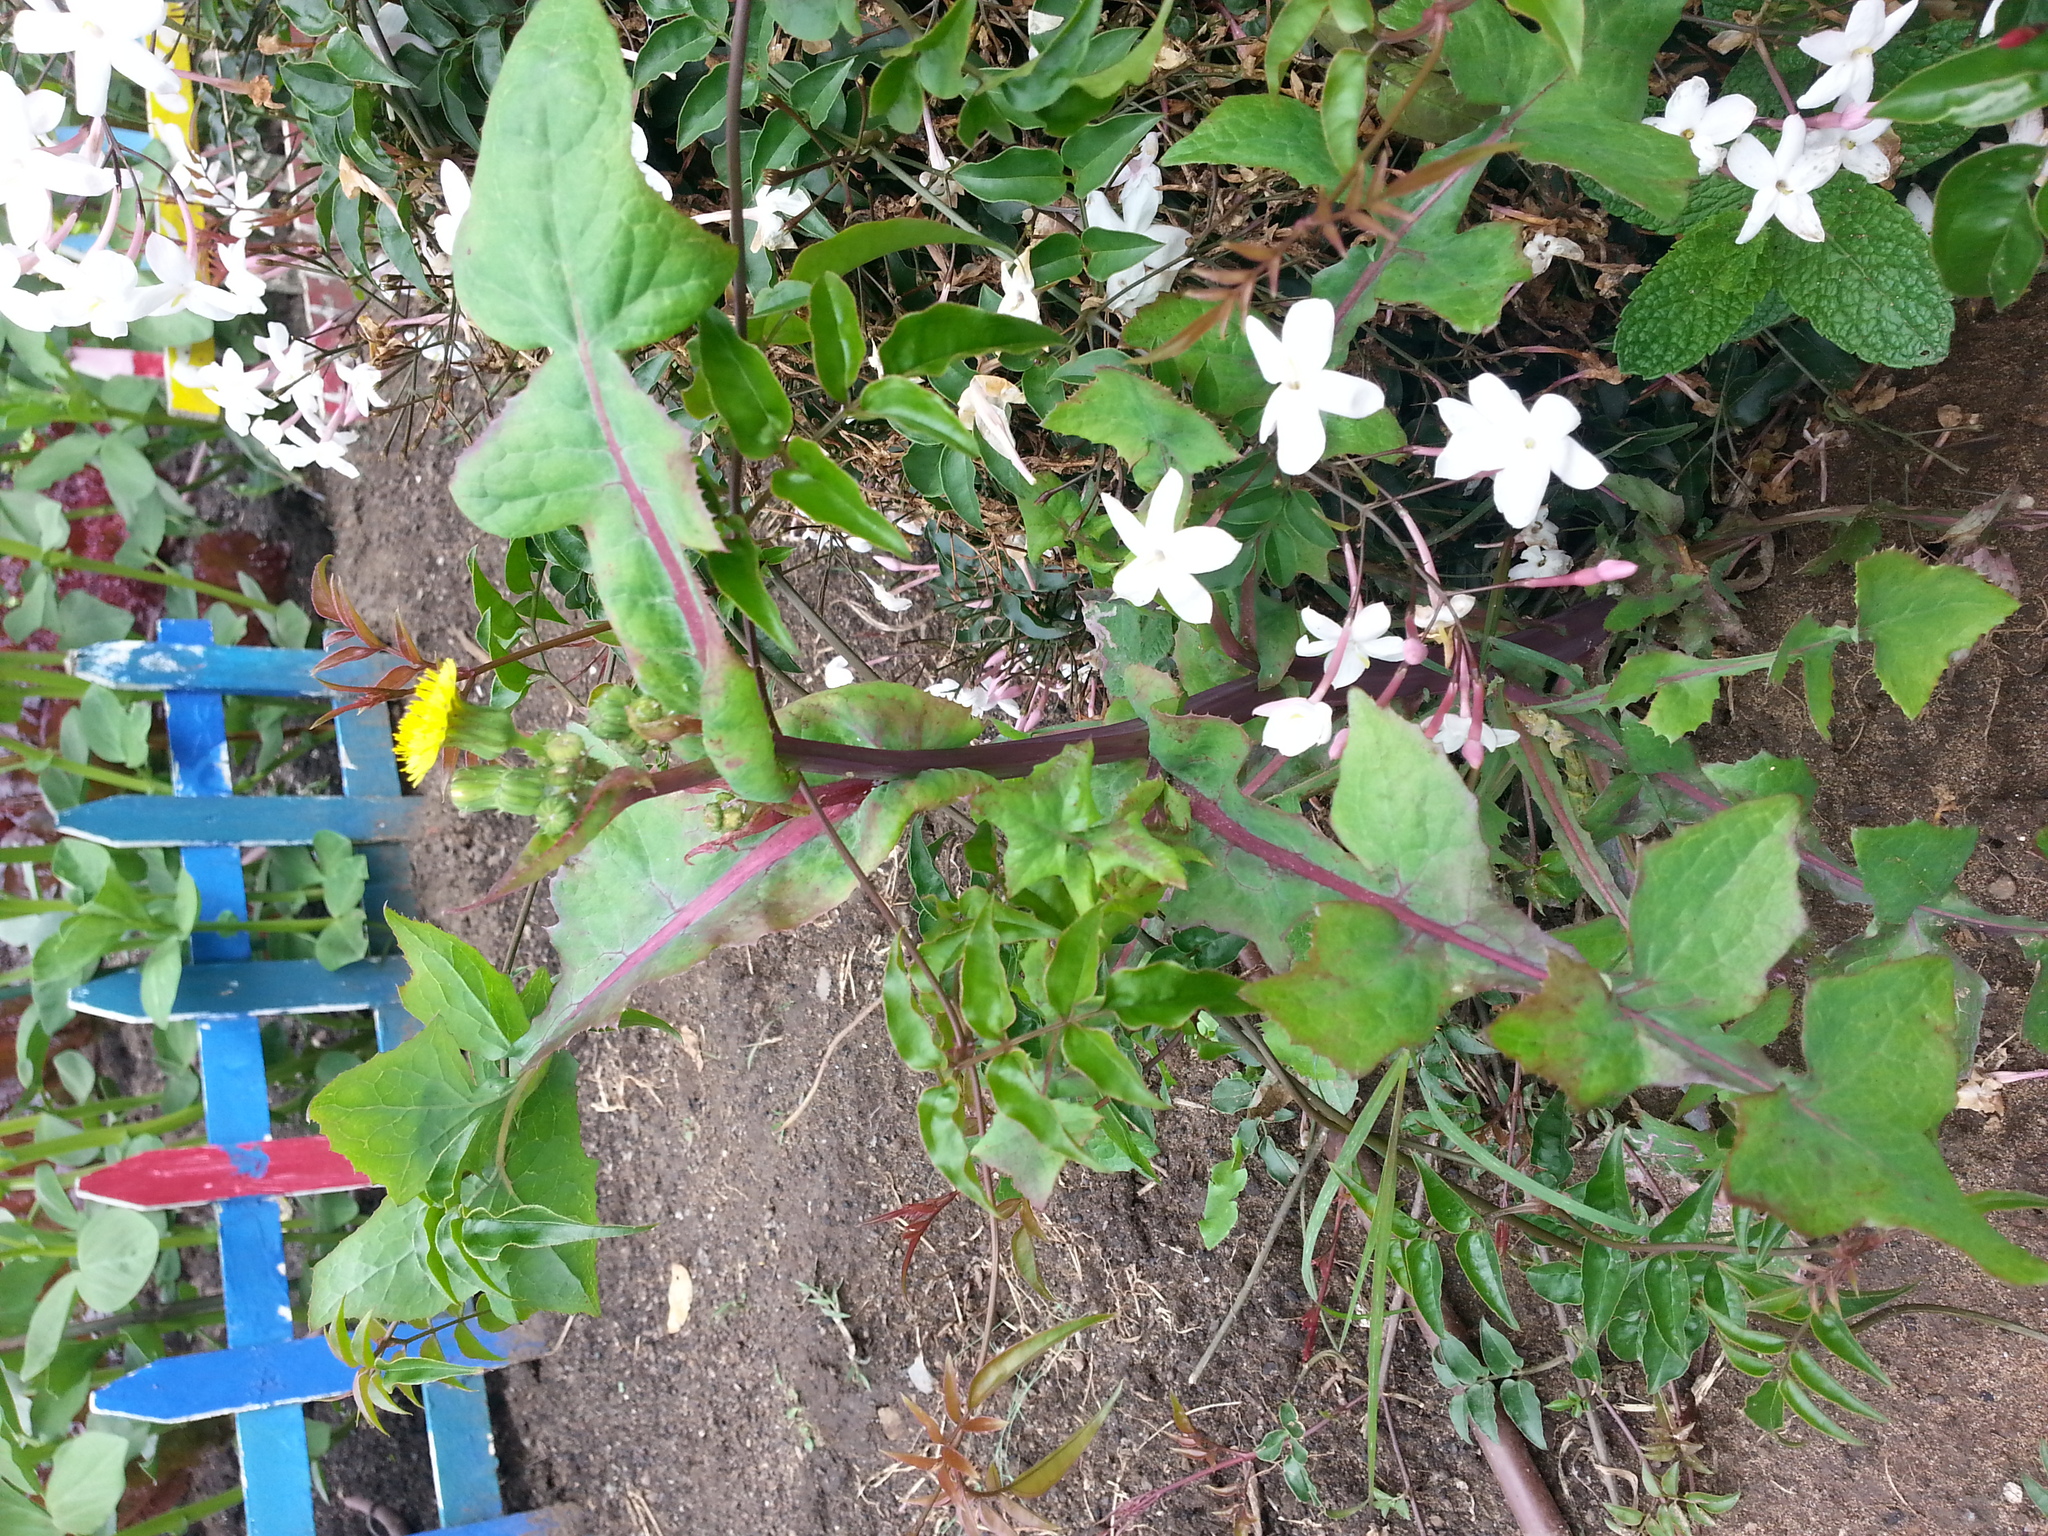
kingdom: Plantae
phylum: Tracheophyta
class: Magnoliopsida
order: Asterales
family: Asteraceae
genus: Sonchus
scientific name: Sonchus oleraceus
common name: Common sowthistle
